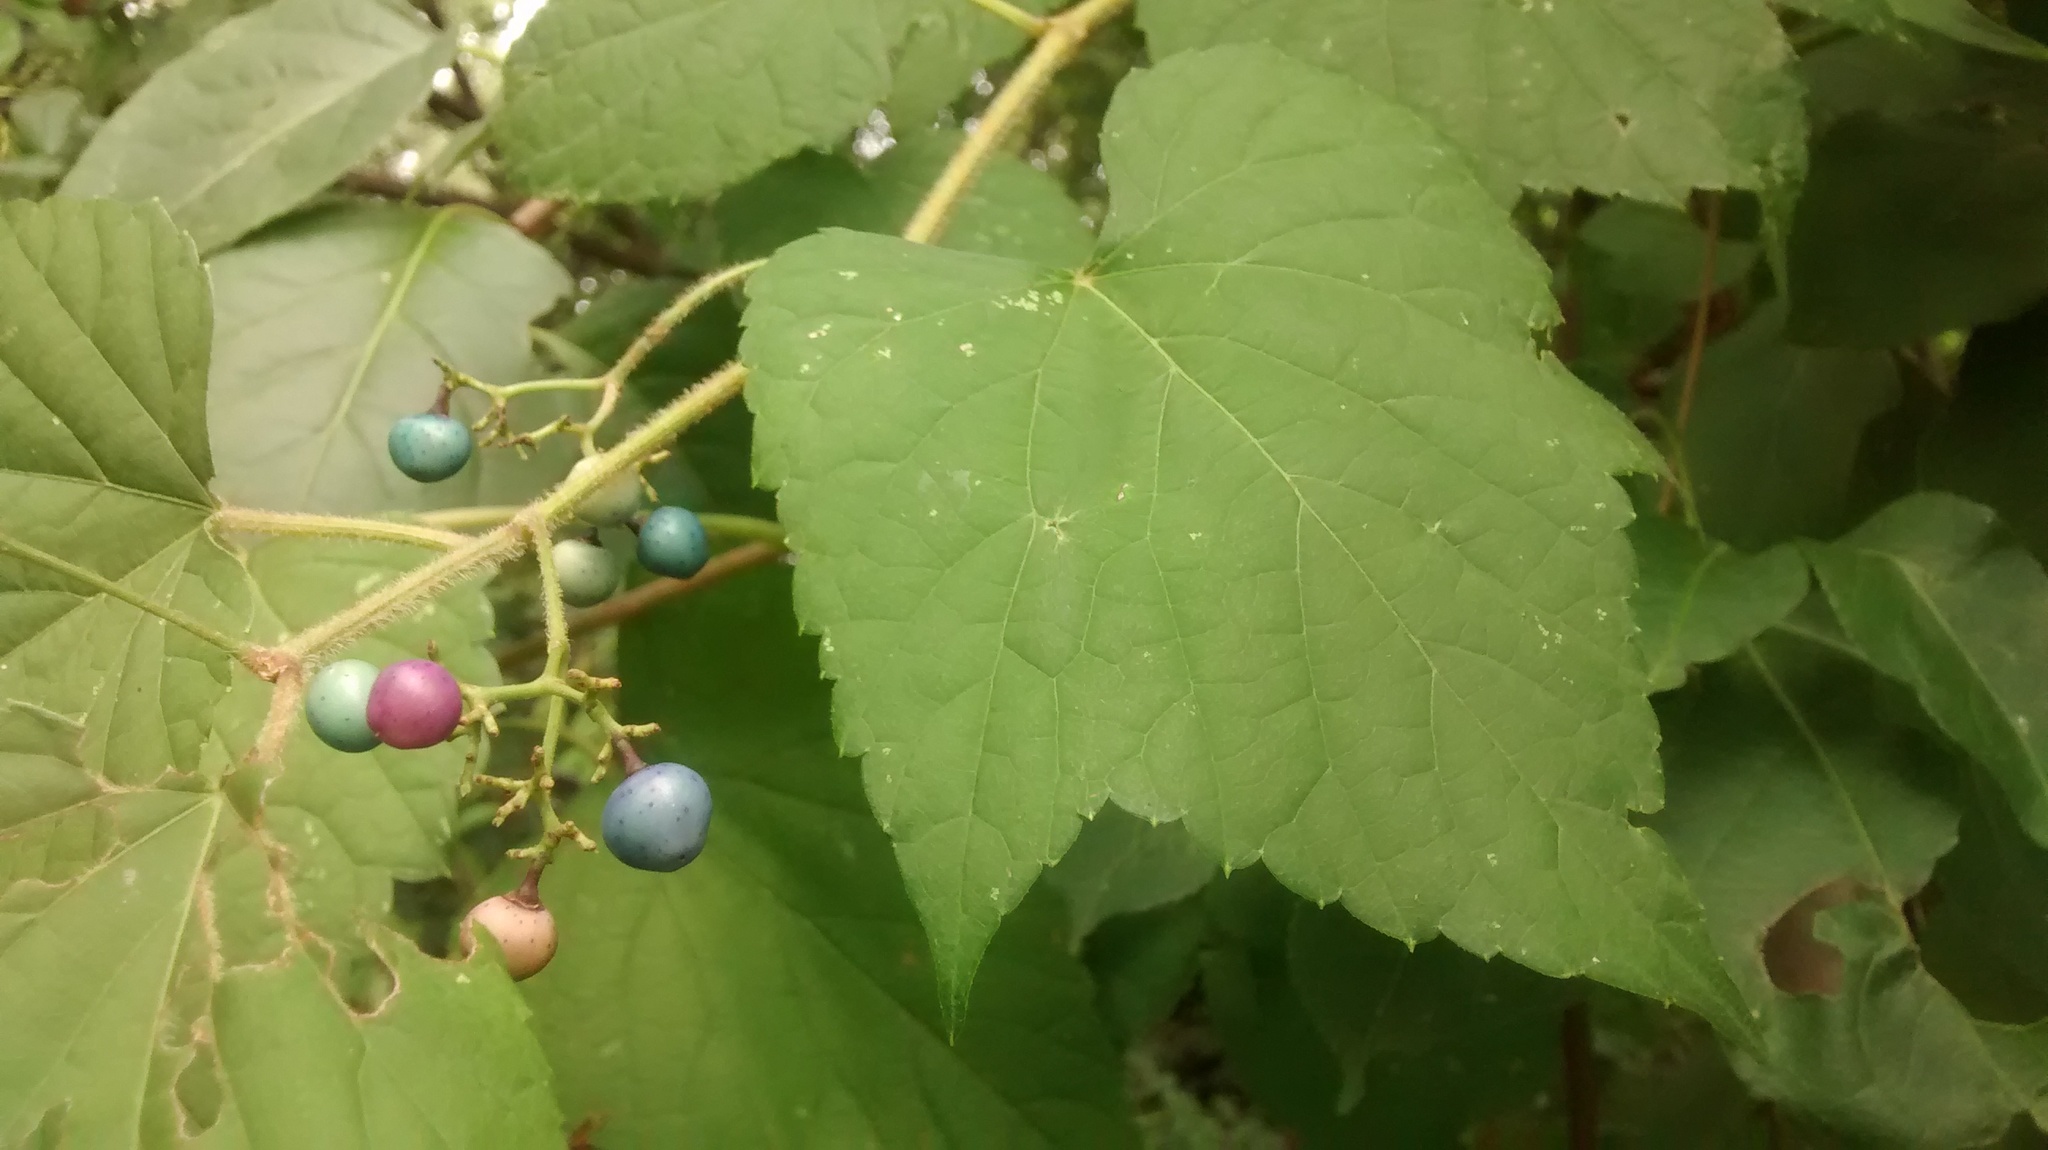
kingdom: Plantae
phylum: Tracheophyta
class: Magnoliopsida
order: Vitales
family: Vitaceae
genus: Ampelopsis
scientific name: Ampelopsis glandulosa
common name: Amur peppervine
